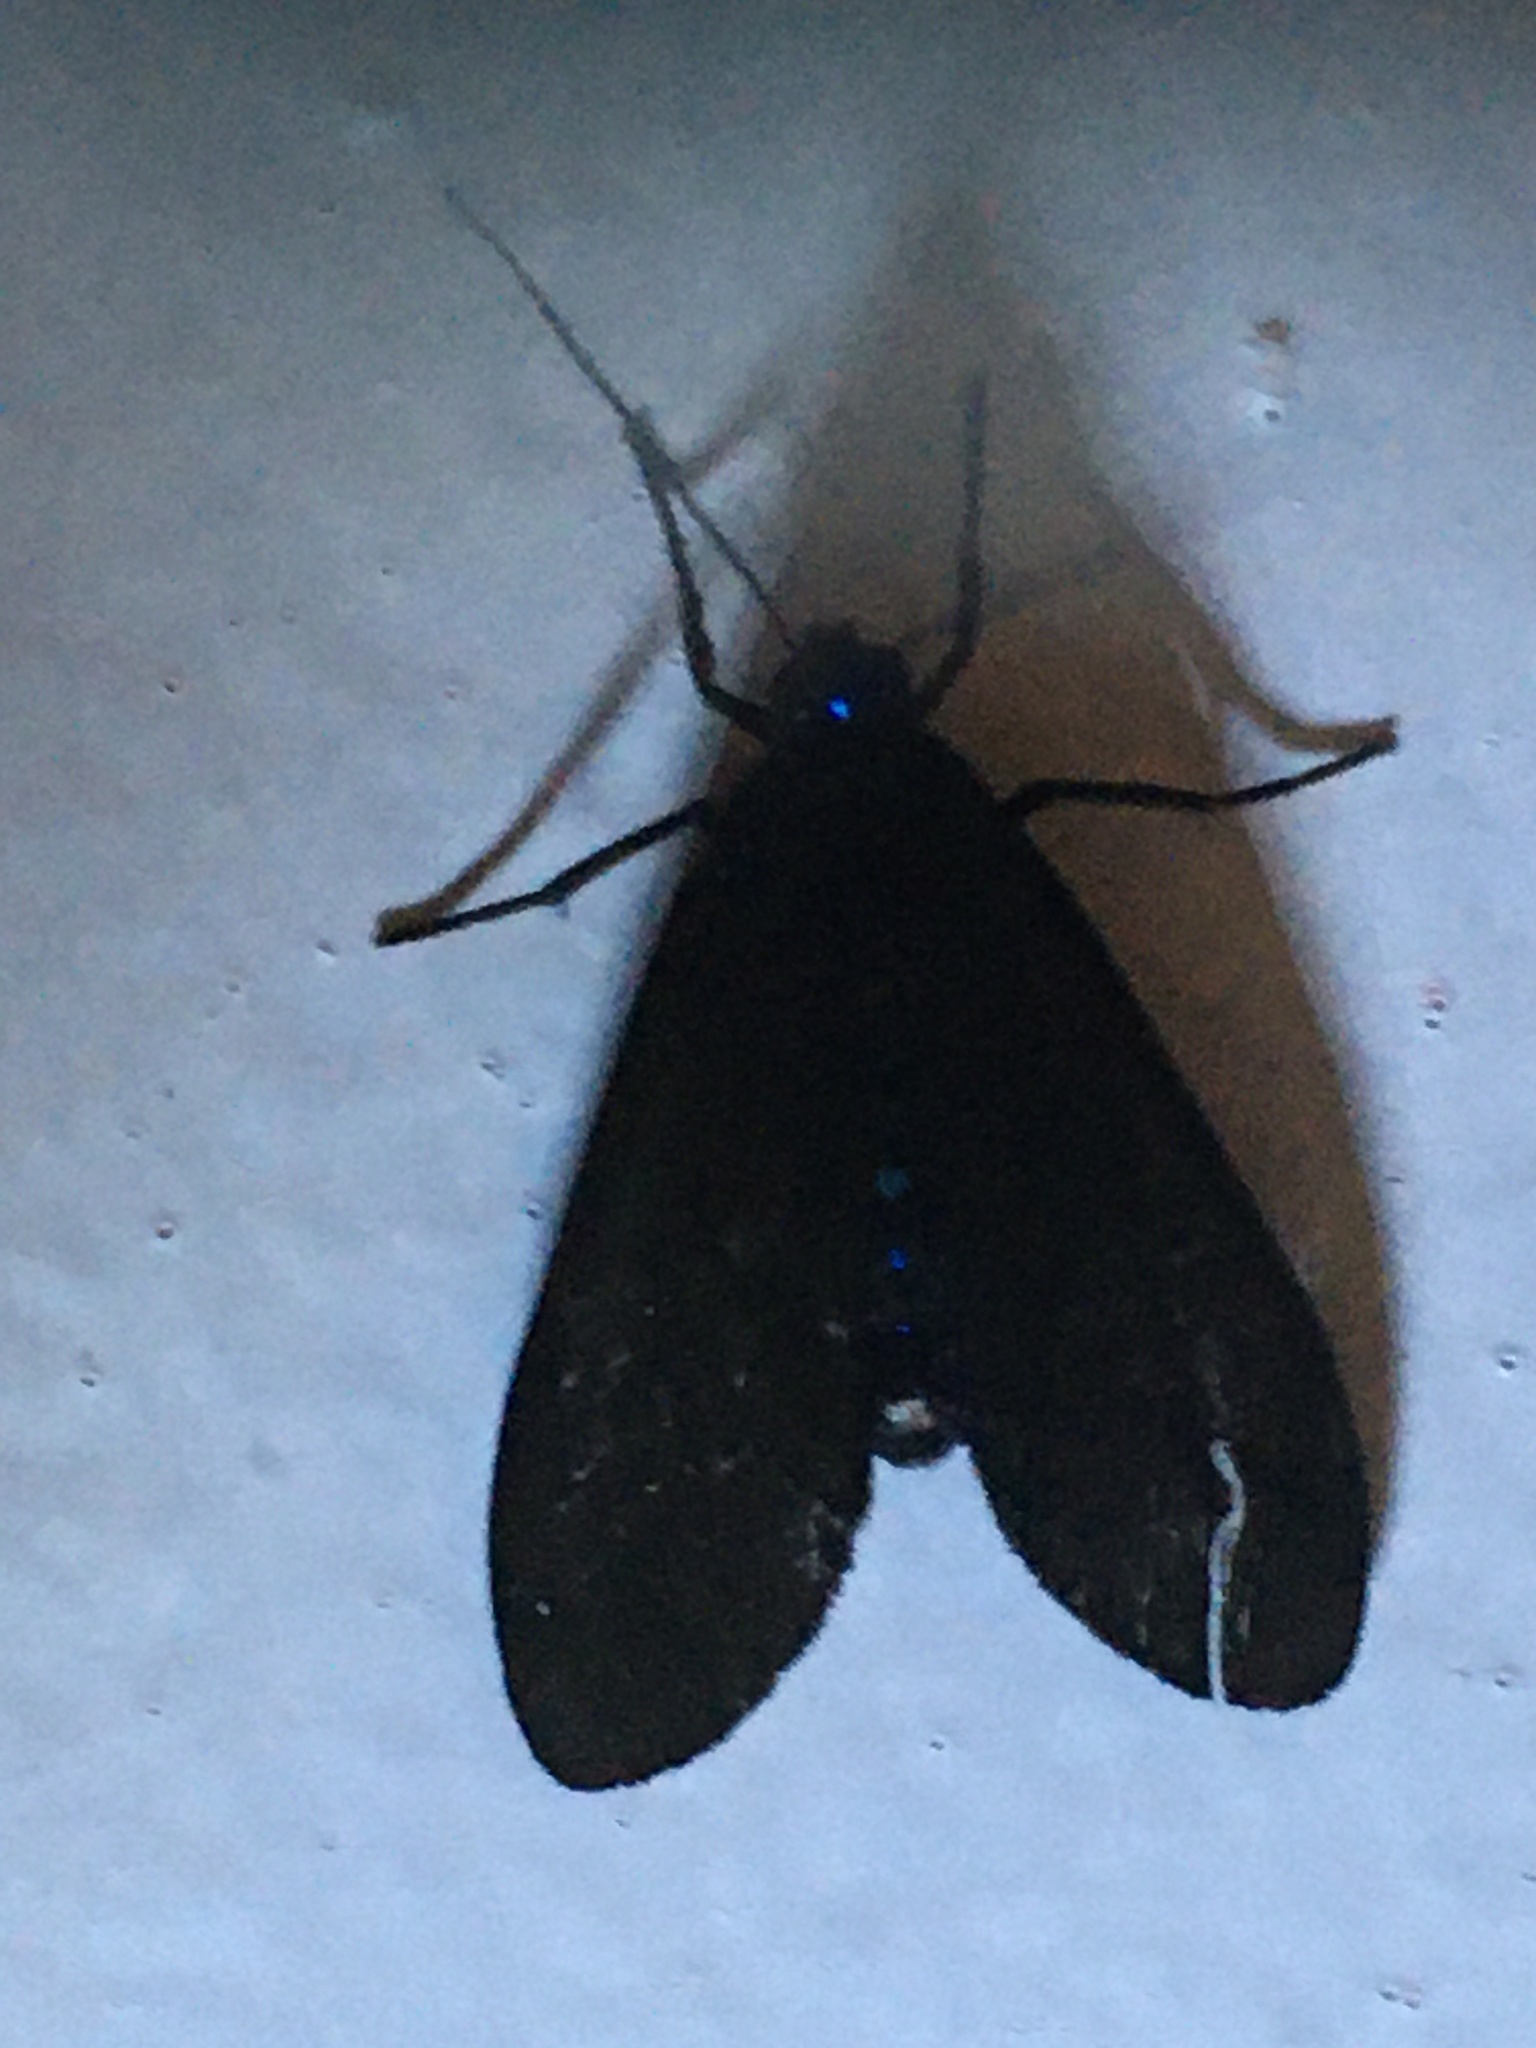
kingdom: Animalia
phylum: Arthropoda
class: Insecta
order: Lepidoptera
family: Erebidae
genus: Aclytia
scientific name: Aclytia ventralis
